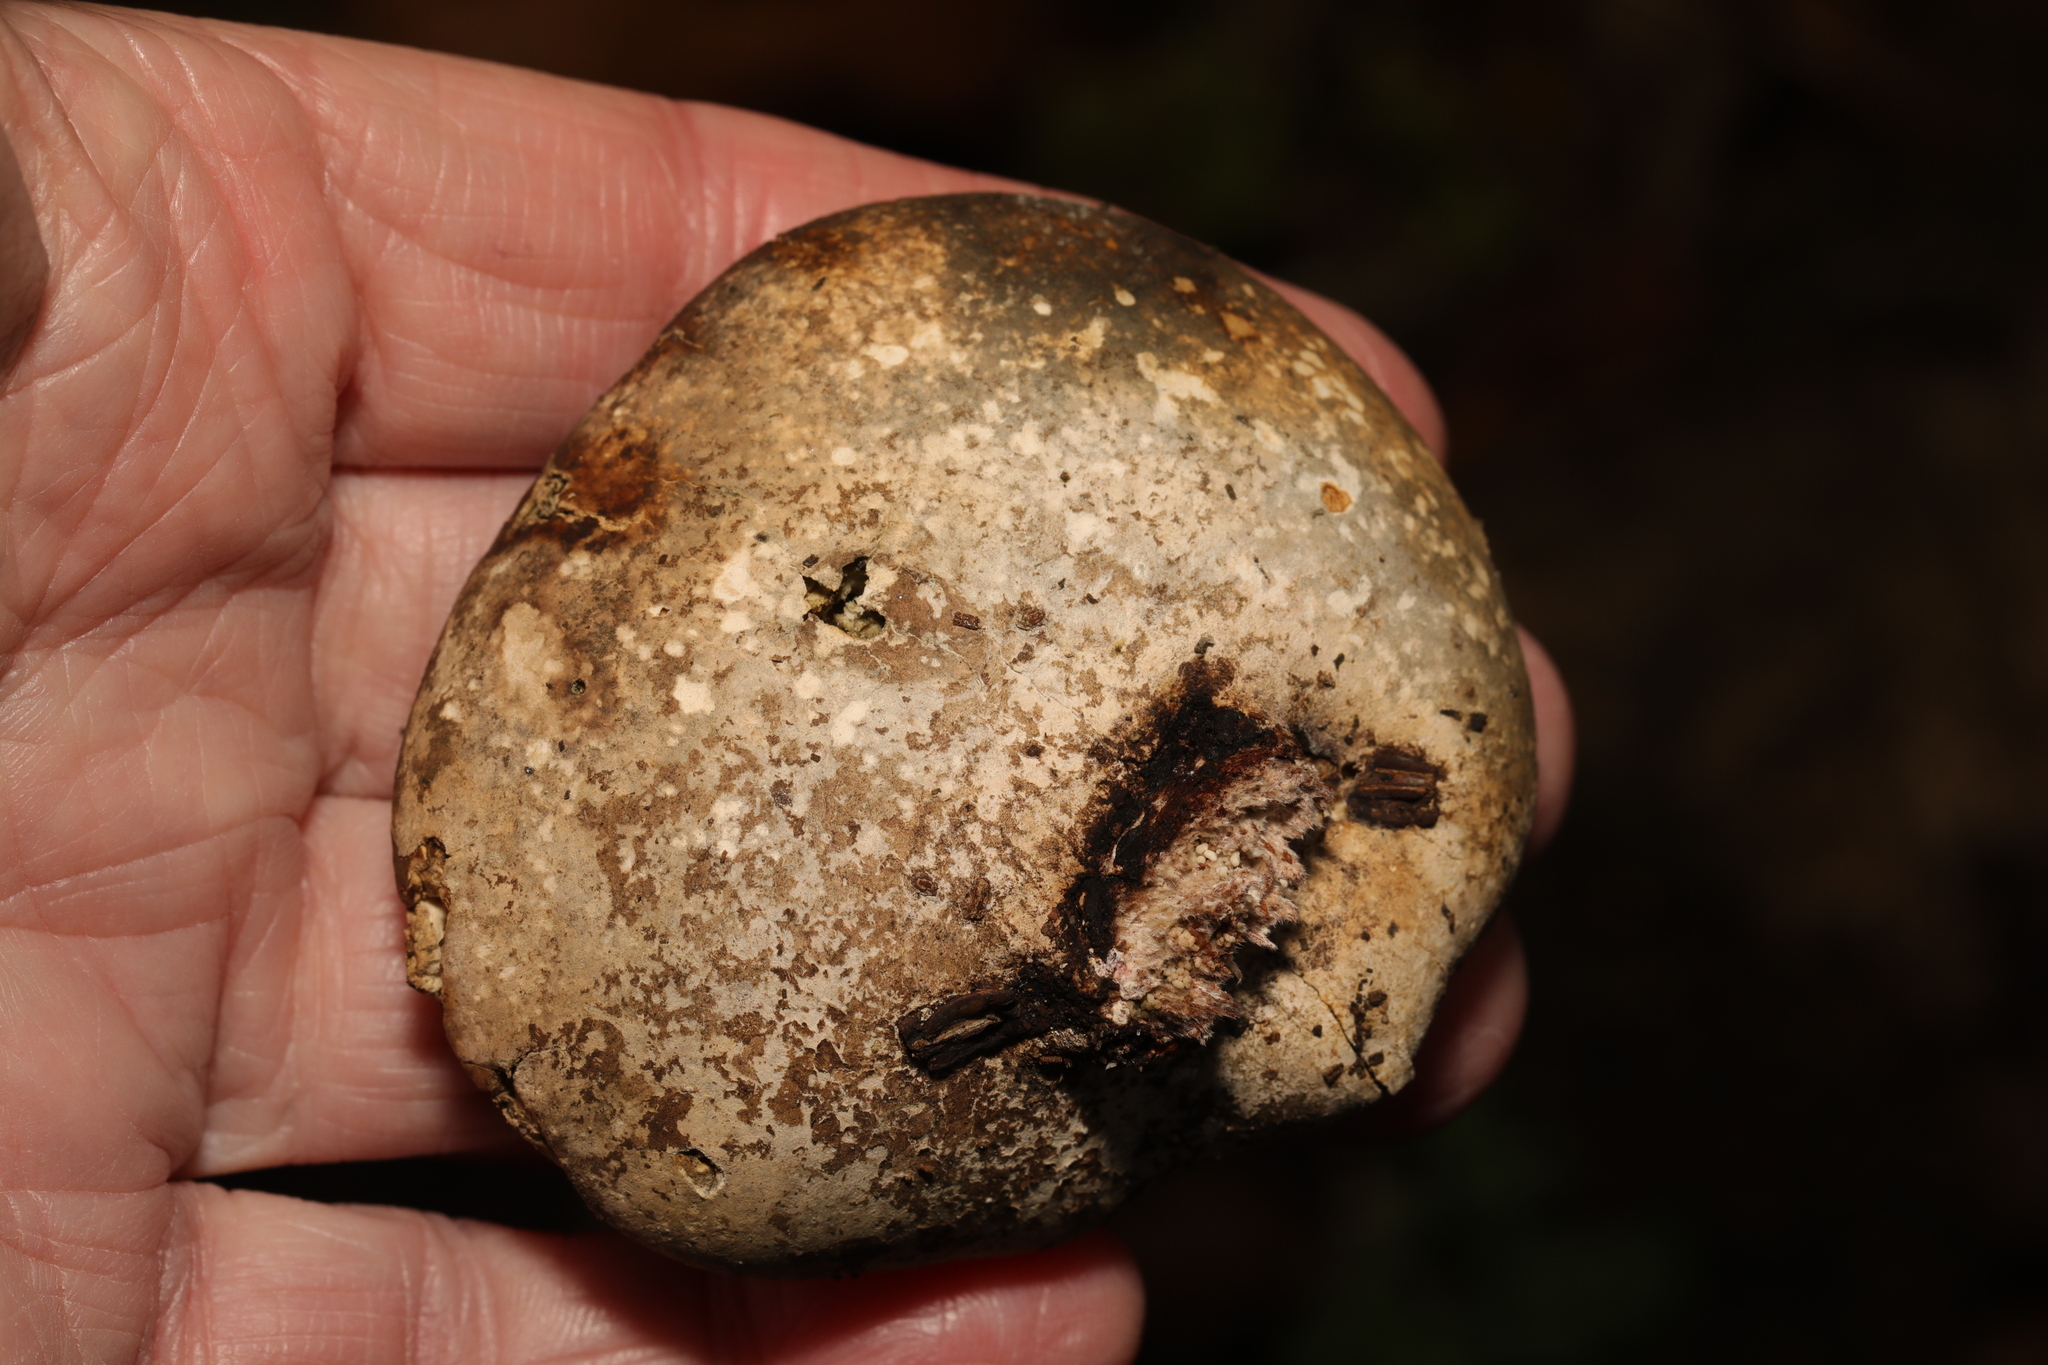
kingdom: Fungi
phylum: Basidiomycota
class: Agaricomycetes
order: Polyporales
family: Fomitopsidaceae
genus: Fomitopsis
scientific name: Fomitopsis betulina
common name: Birch polypore
